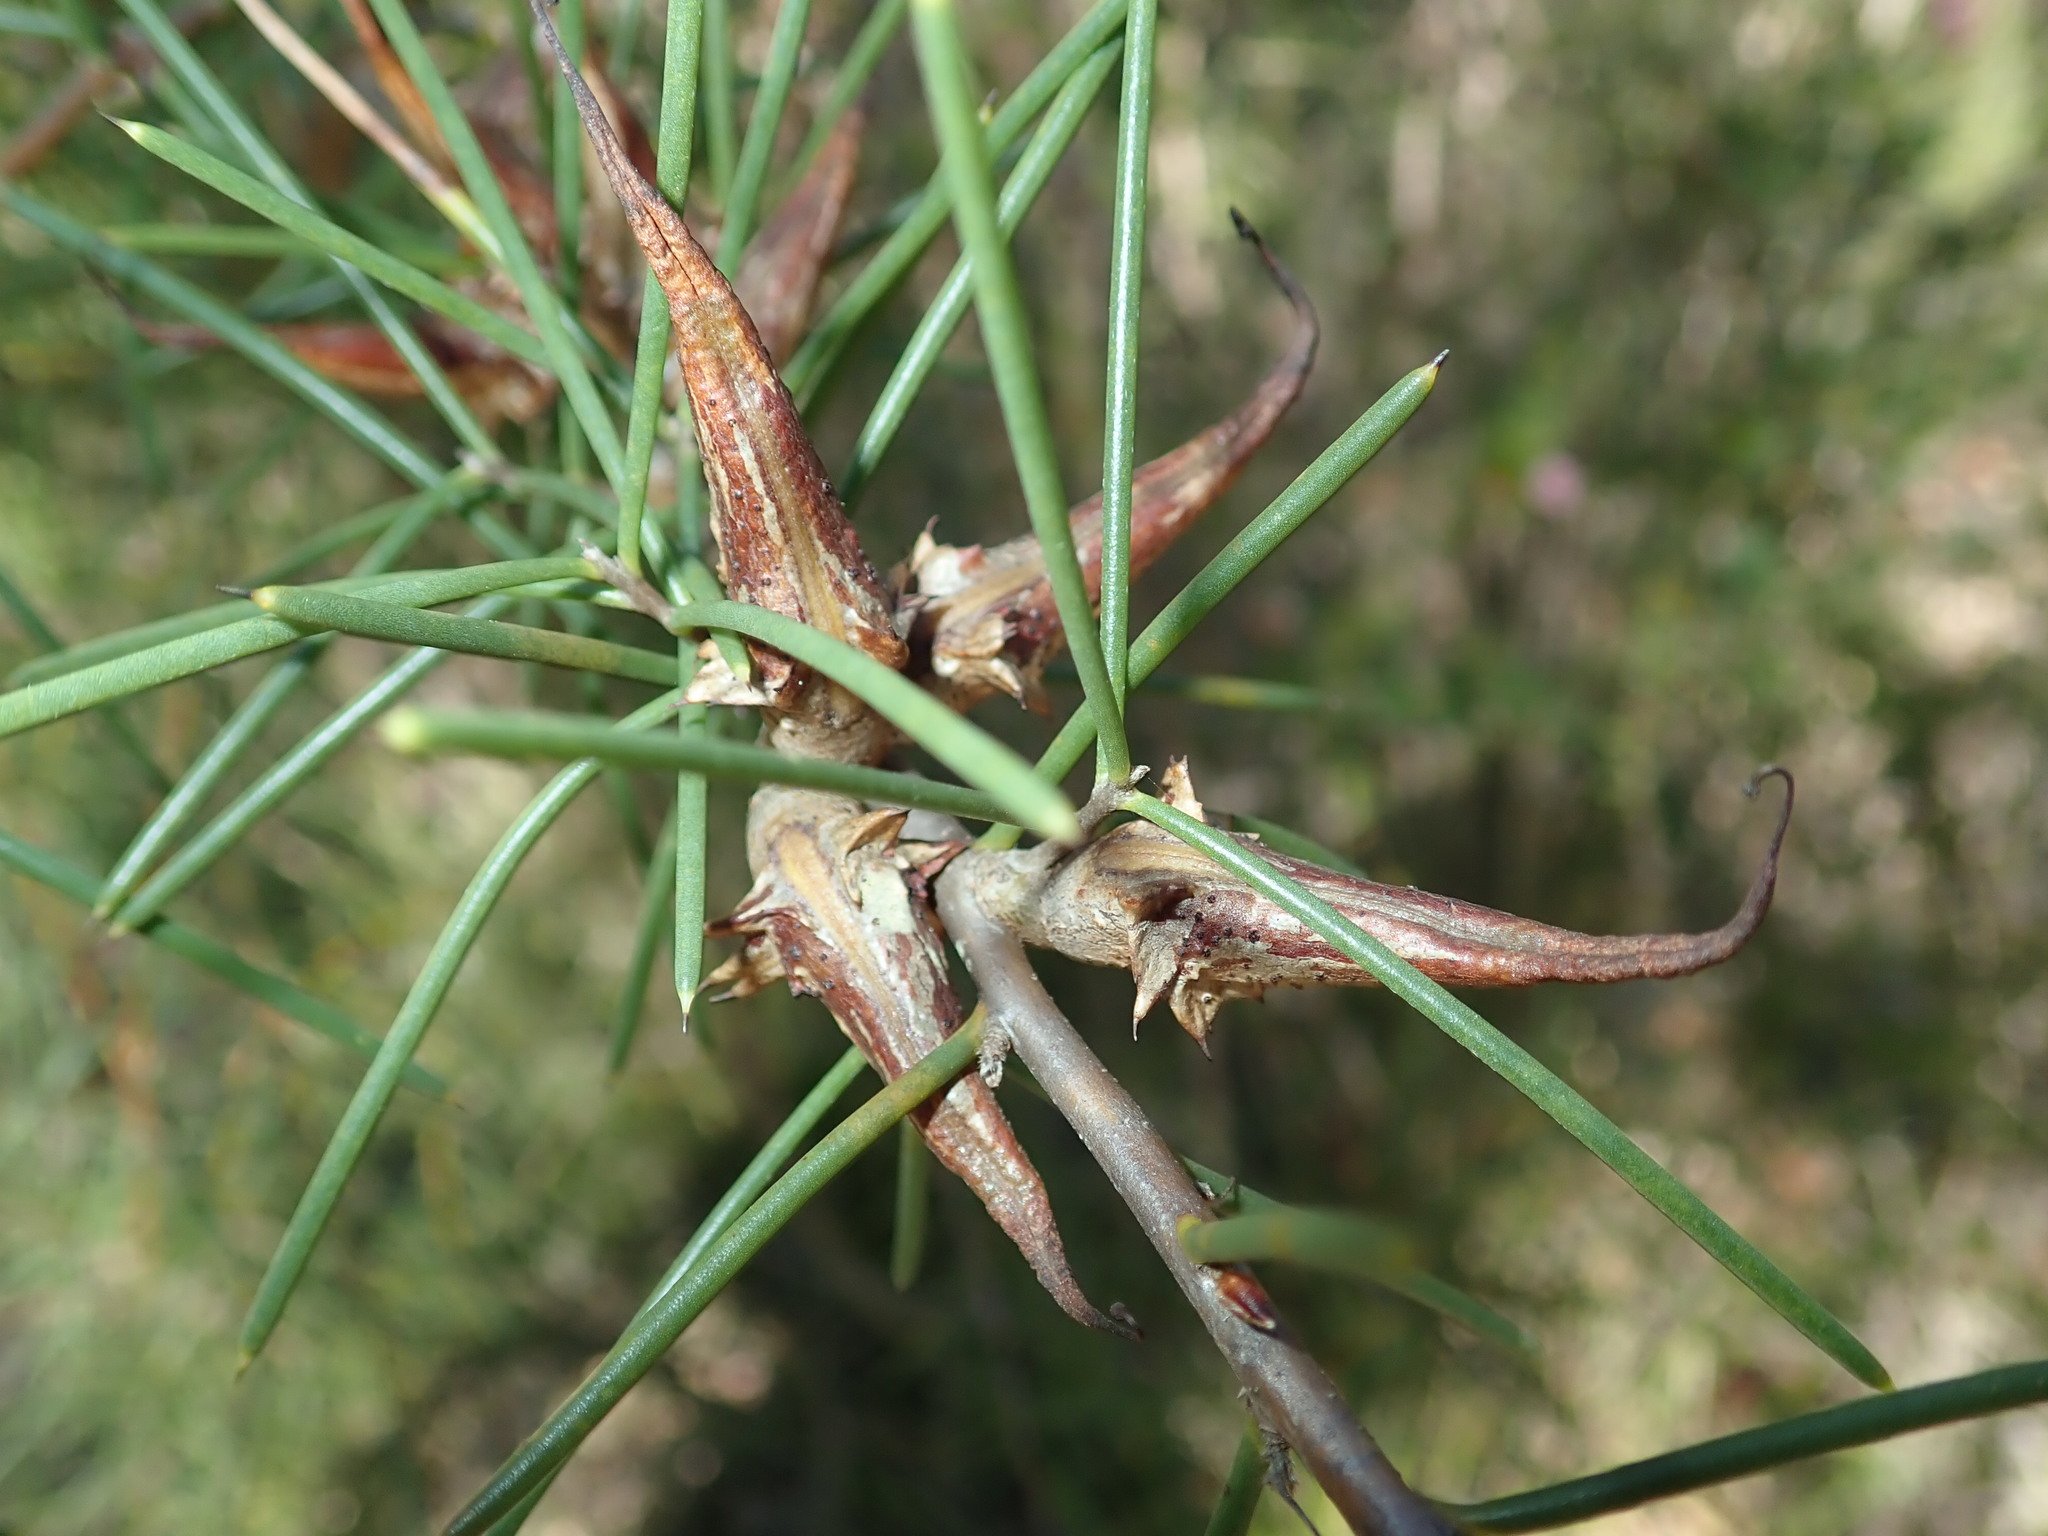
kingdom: Plantae
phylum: Tracheophyta
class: Magnoliopsida
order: Proteales
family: Proteaceae
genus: Hakea
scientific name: Hakea teretifolia
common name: Dagger hakea
